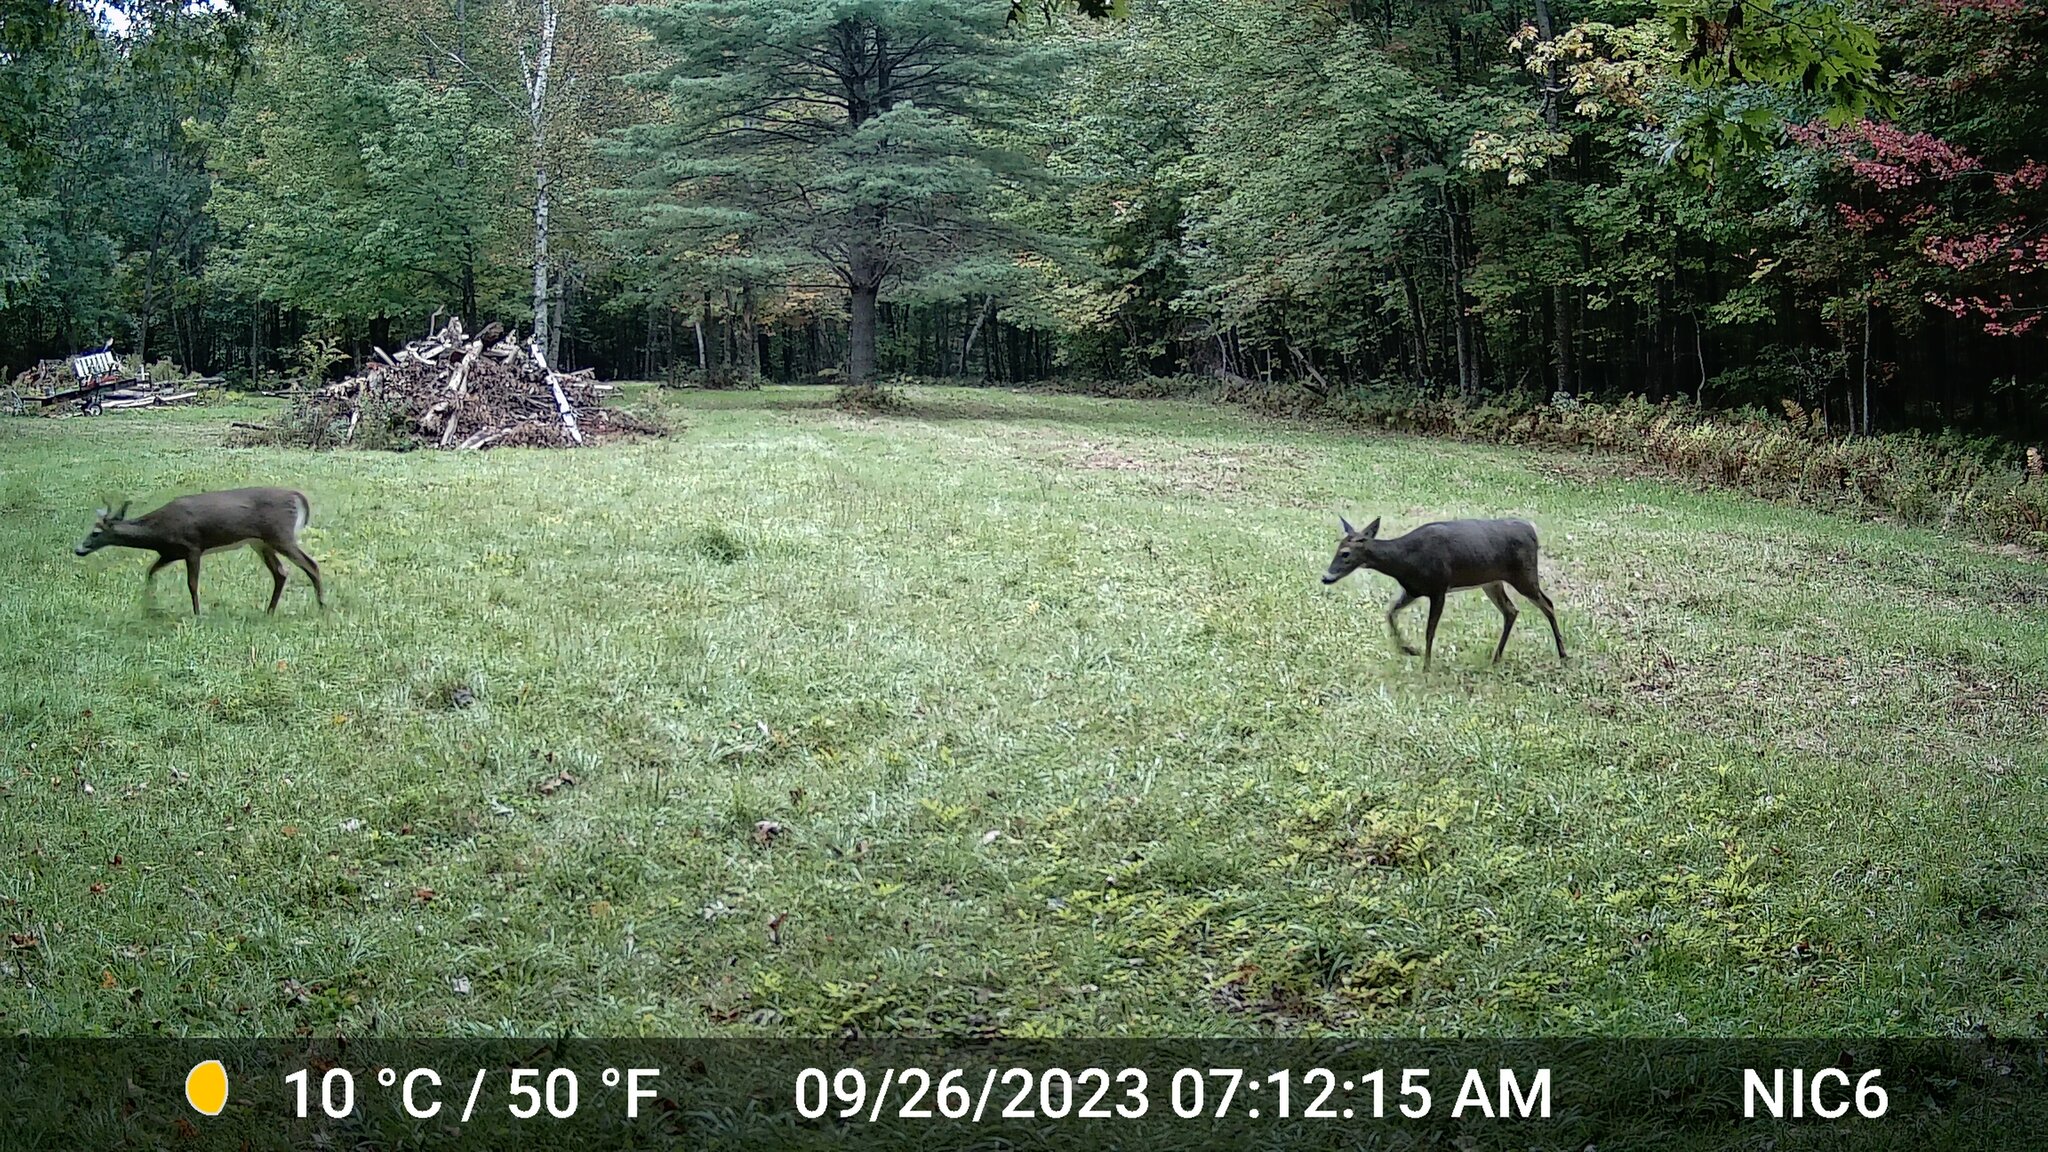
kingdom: Animalia
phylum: Chordata
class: Mammalia
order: Artiodactyla
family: Cervidae
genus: Odocoileus
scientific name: Odocoileus virginianus
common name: White-tailed deer
